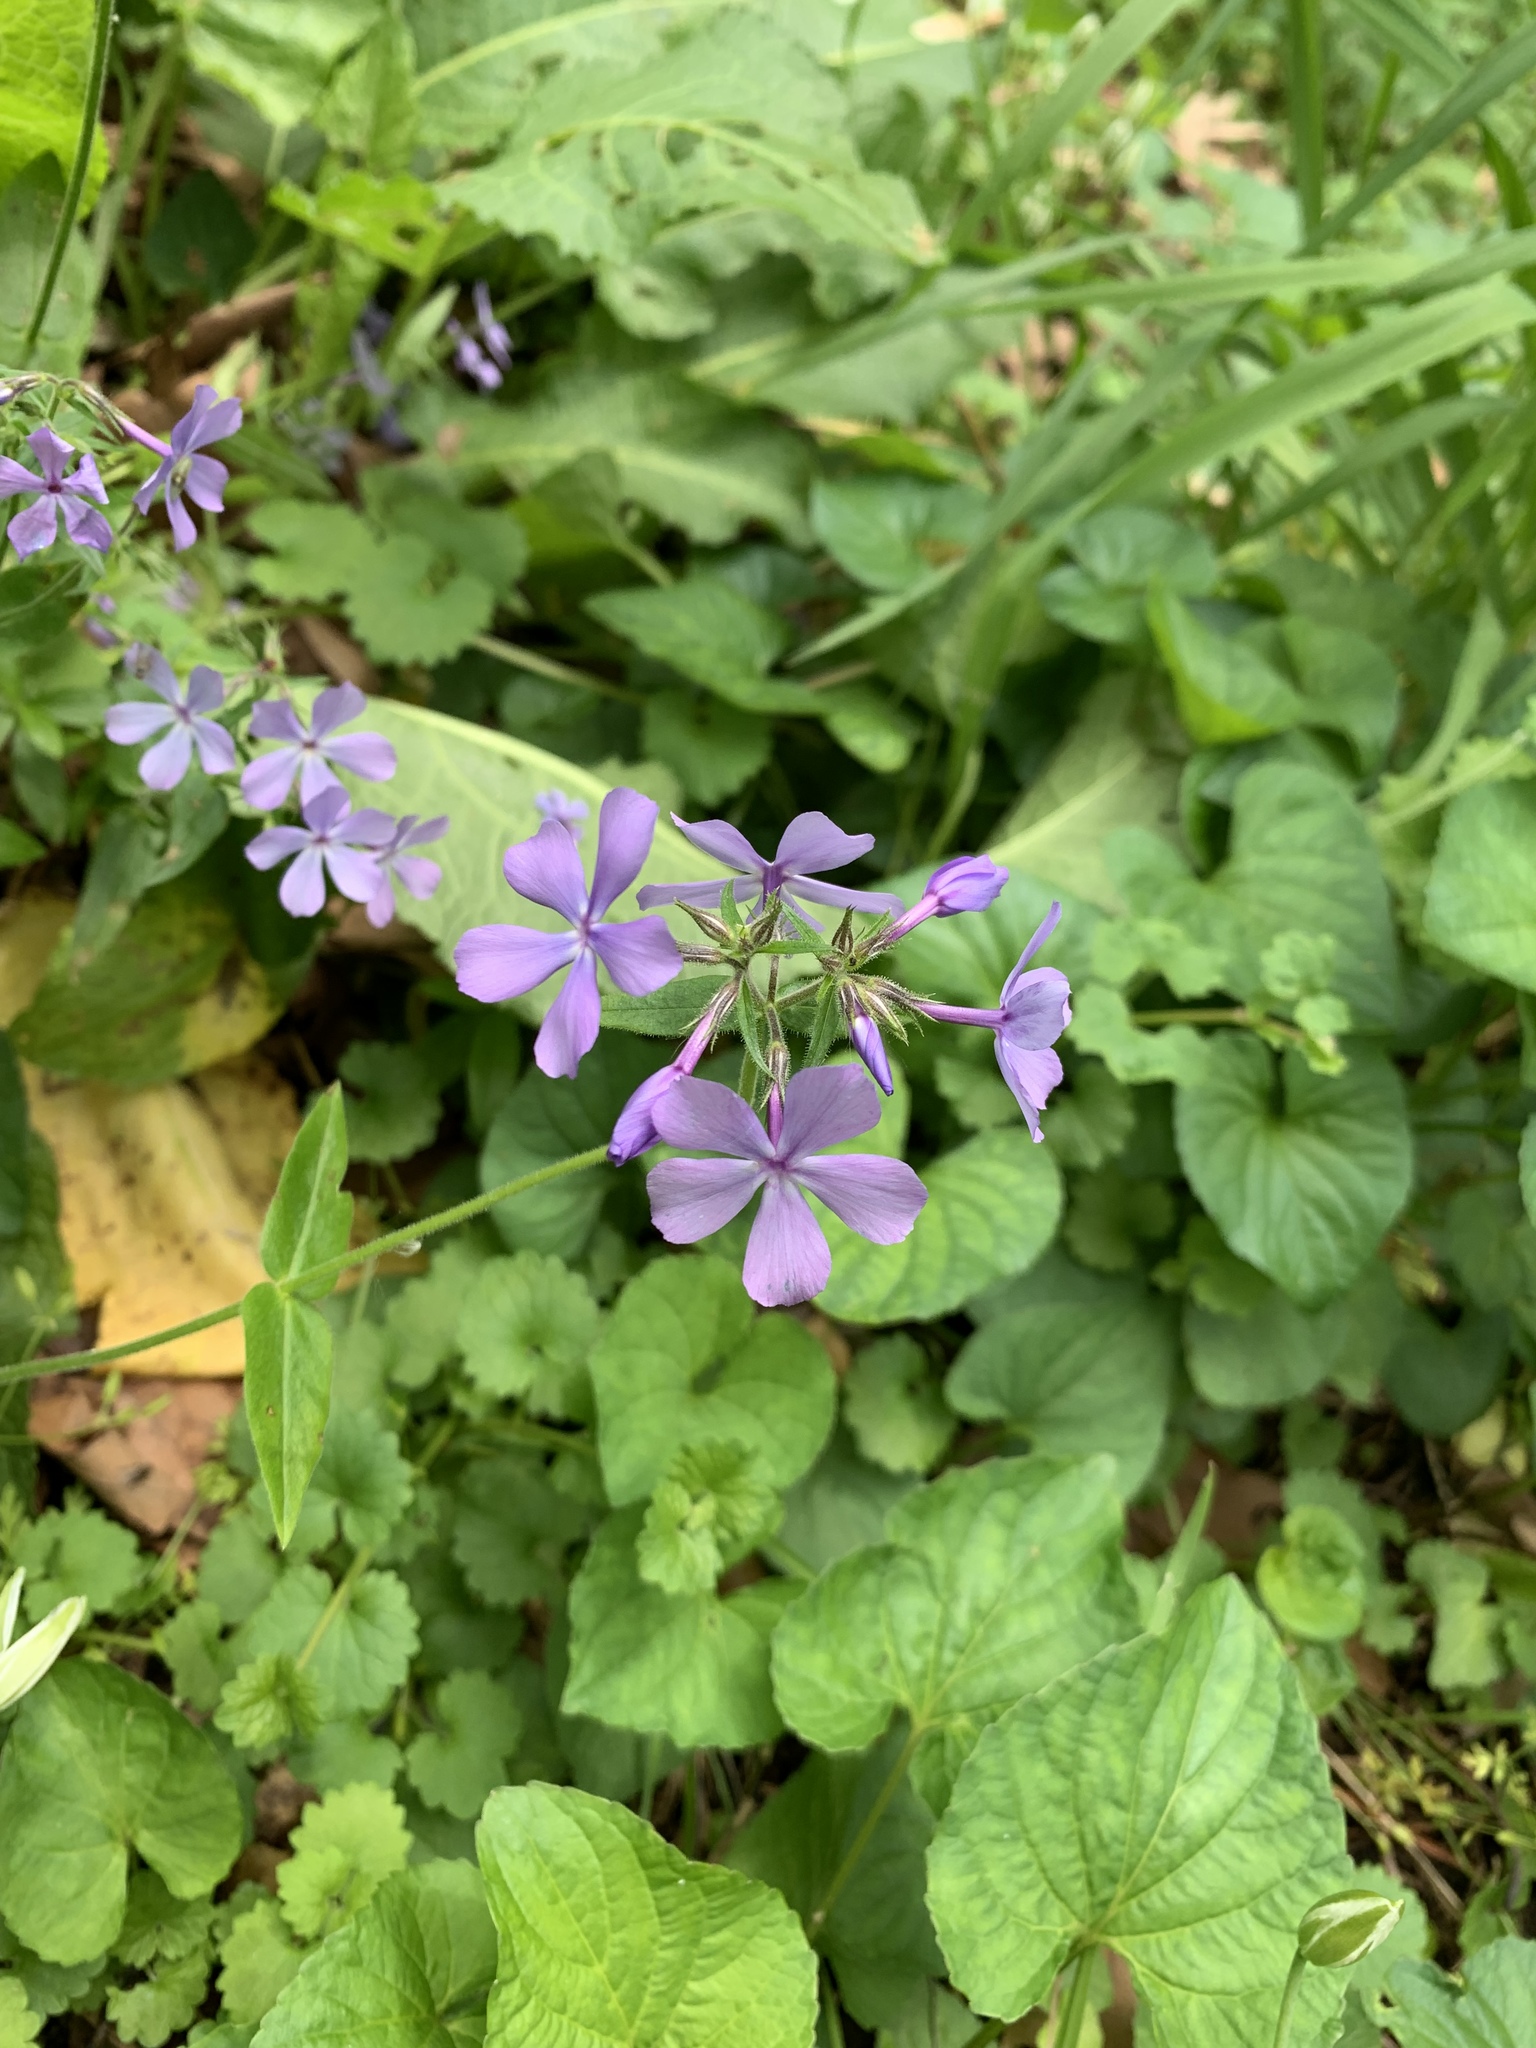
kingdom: Plantae
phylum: Tracheophyta
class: Magnoliopsida
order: Ericales
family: Polemoniaceae
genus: Phlox
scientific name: Phlox divaricata
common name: Blue phlox
